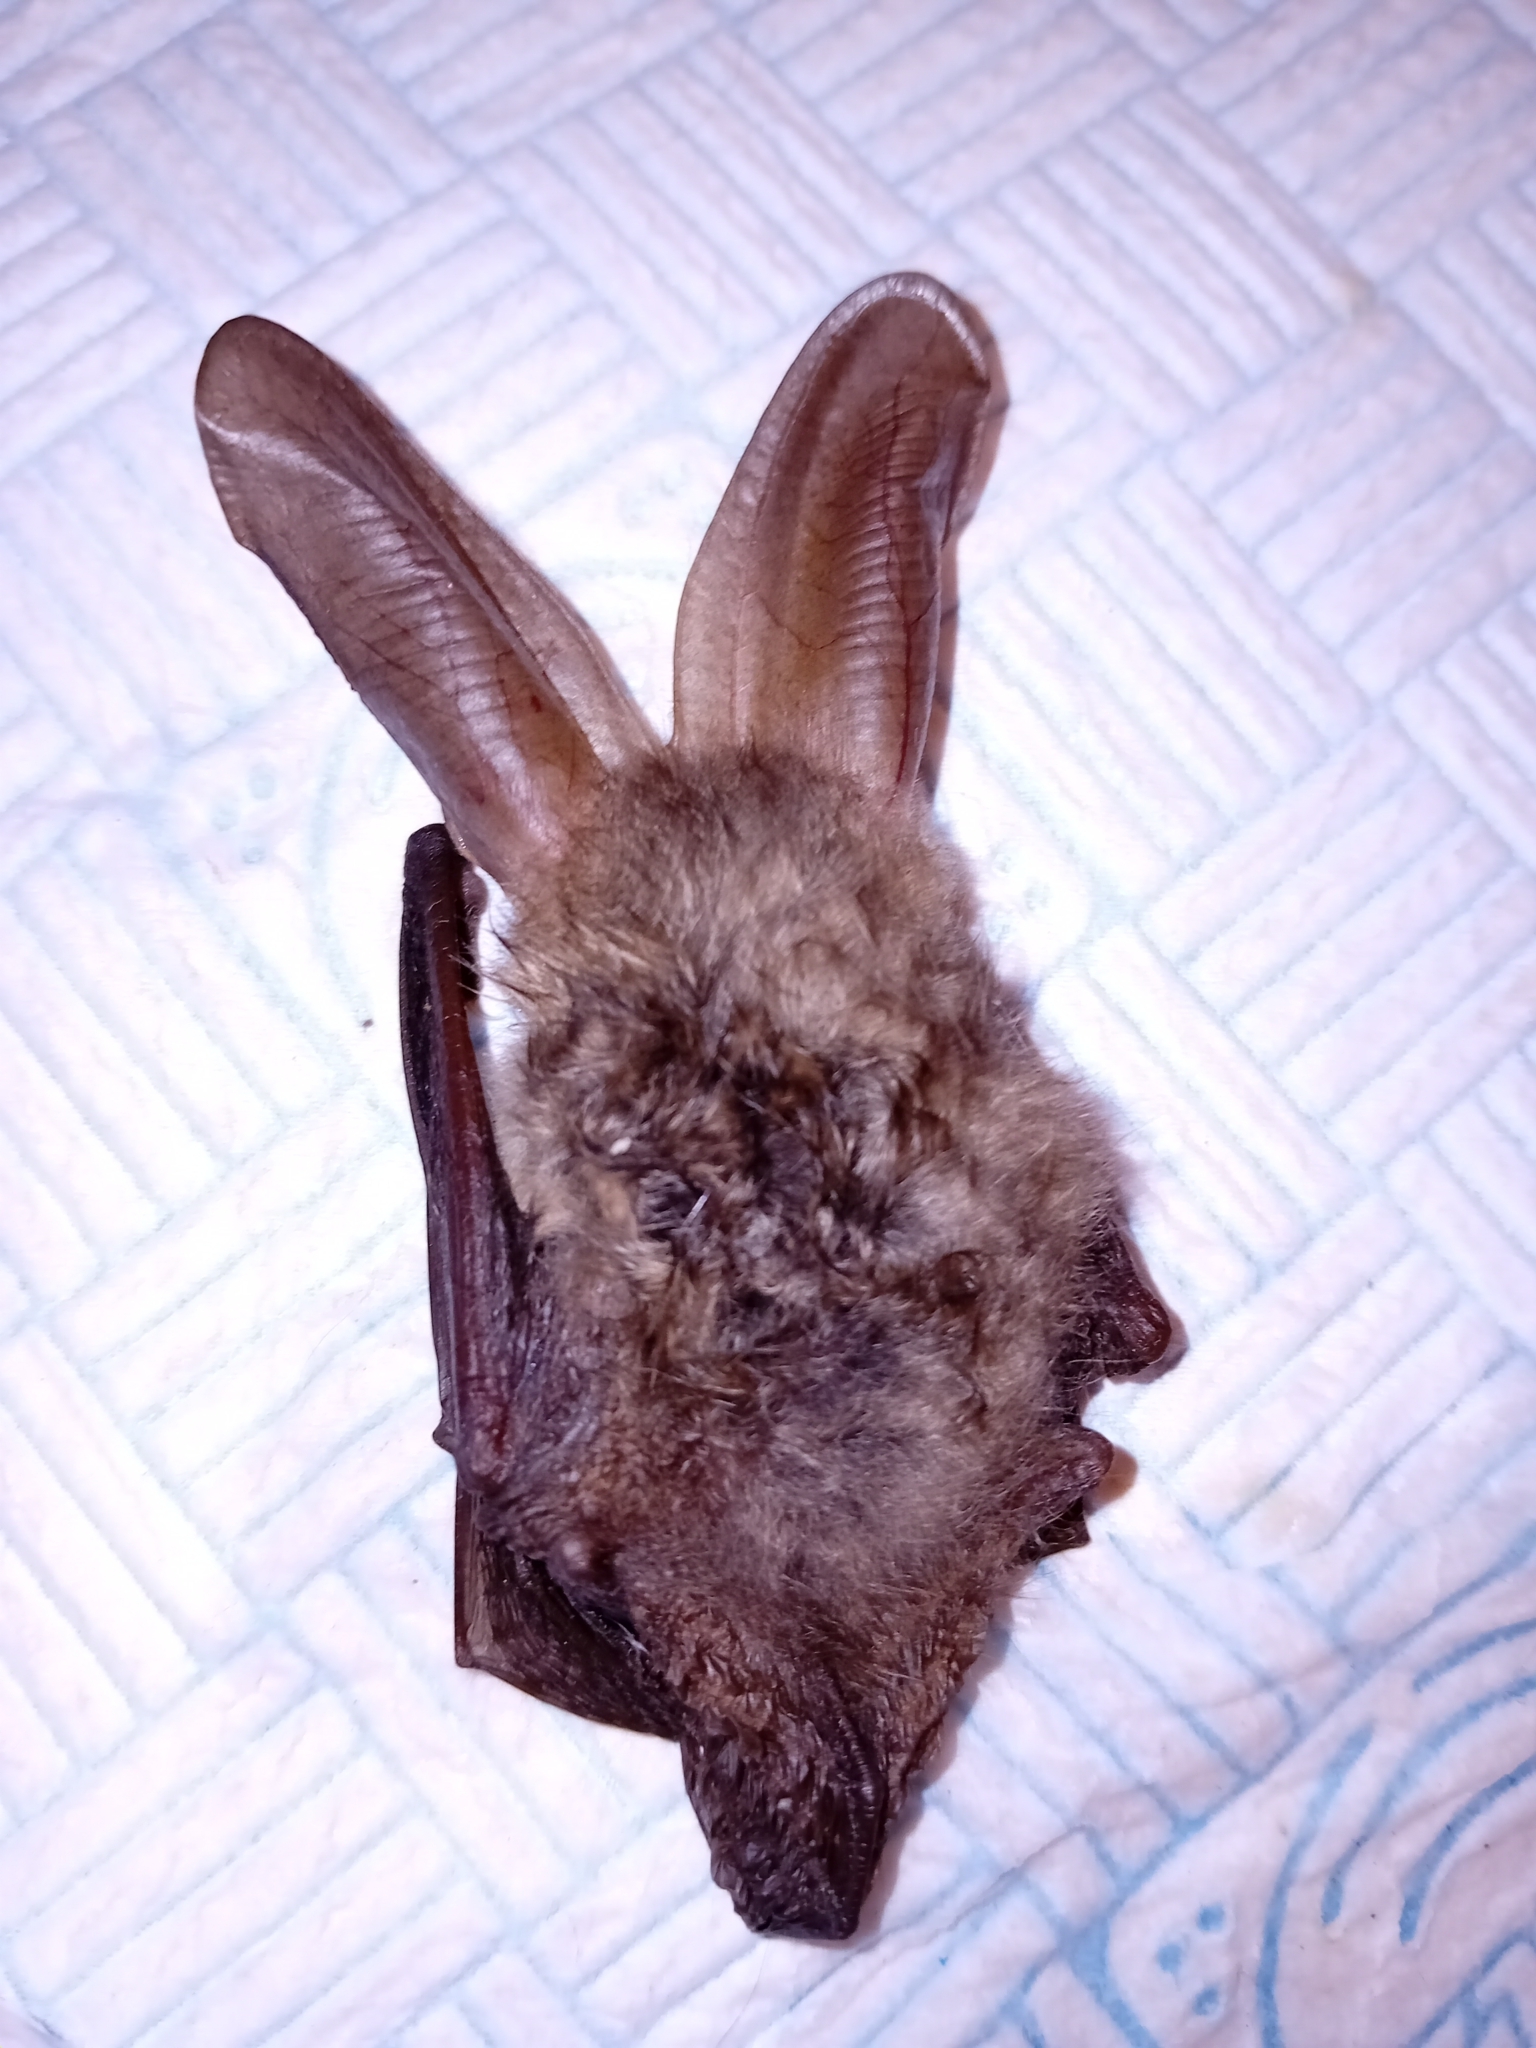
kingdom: Animalia
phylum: Chordata
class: Mammalia
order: Chiroptera
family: Vespertilionidae
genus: Plecotus
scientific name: Plecotus auritus
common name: Brown long-eared bat
